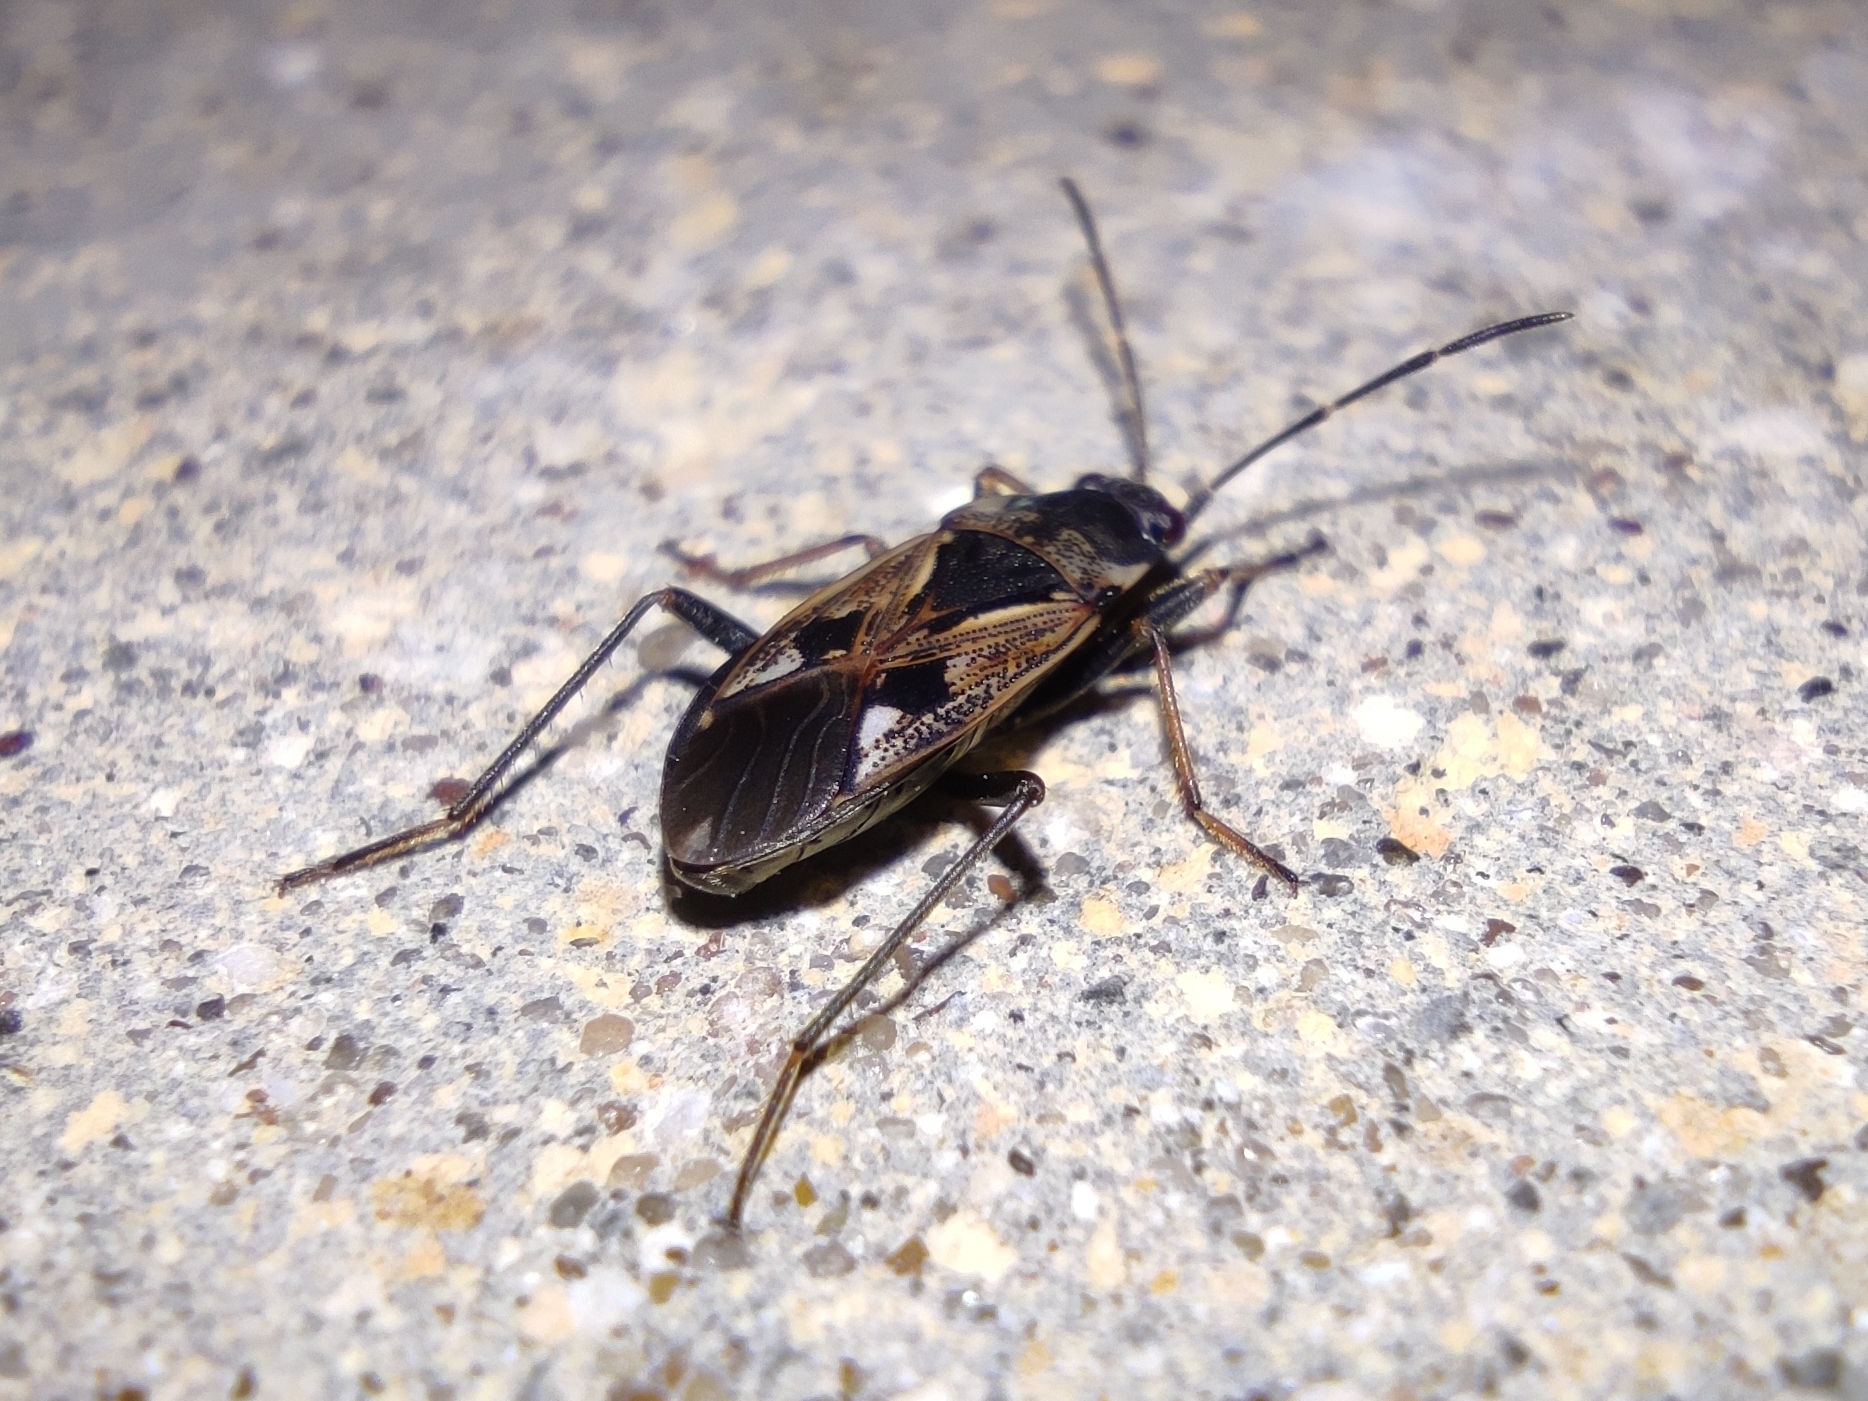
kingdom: Animalia
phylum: Arthropoda
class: Insecta
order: Hemiptera
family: Rhyparochromidae
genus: Rhyparochromus
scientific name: Rhyparochromus vulgaris
